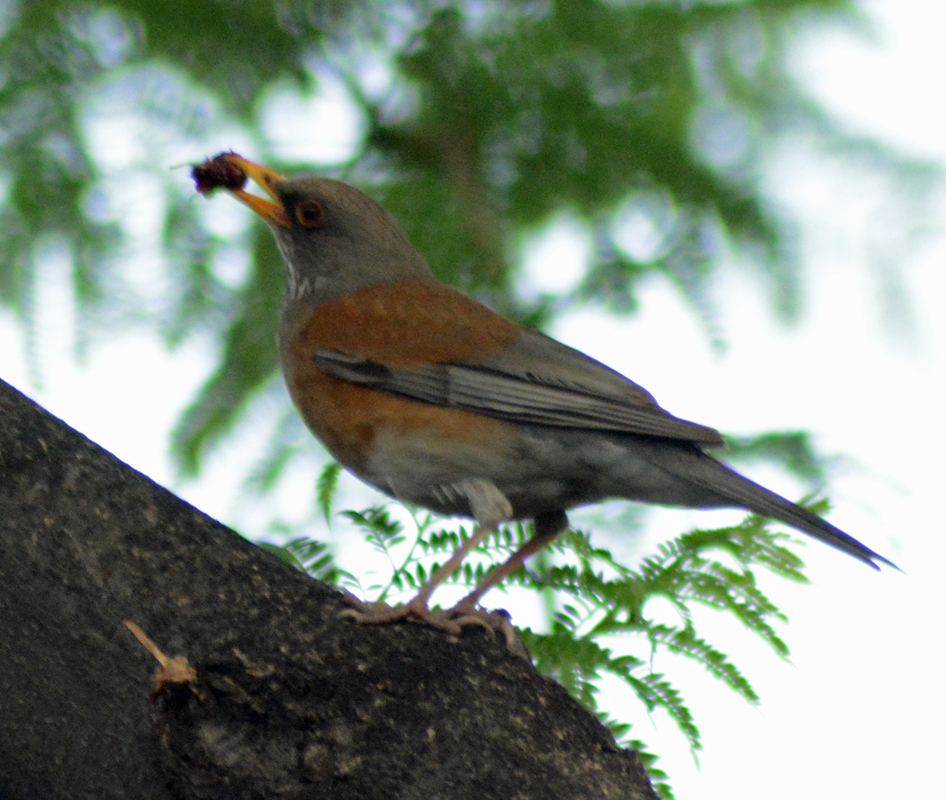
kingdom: Animalia
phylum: Chordata
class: Aves
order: Passeriformes
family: Turdidae
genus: Turdus
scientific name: Turdus rufopalliatus
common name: Rufous-backed robin
